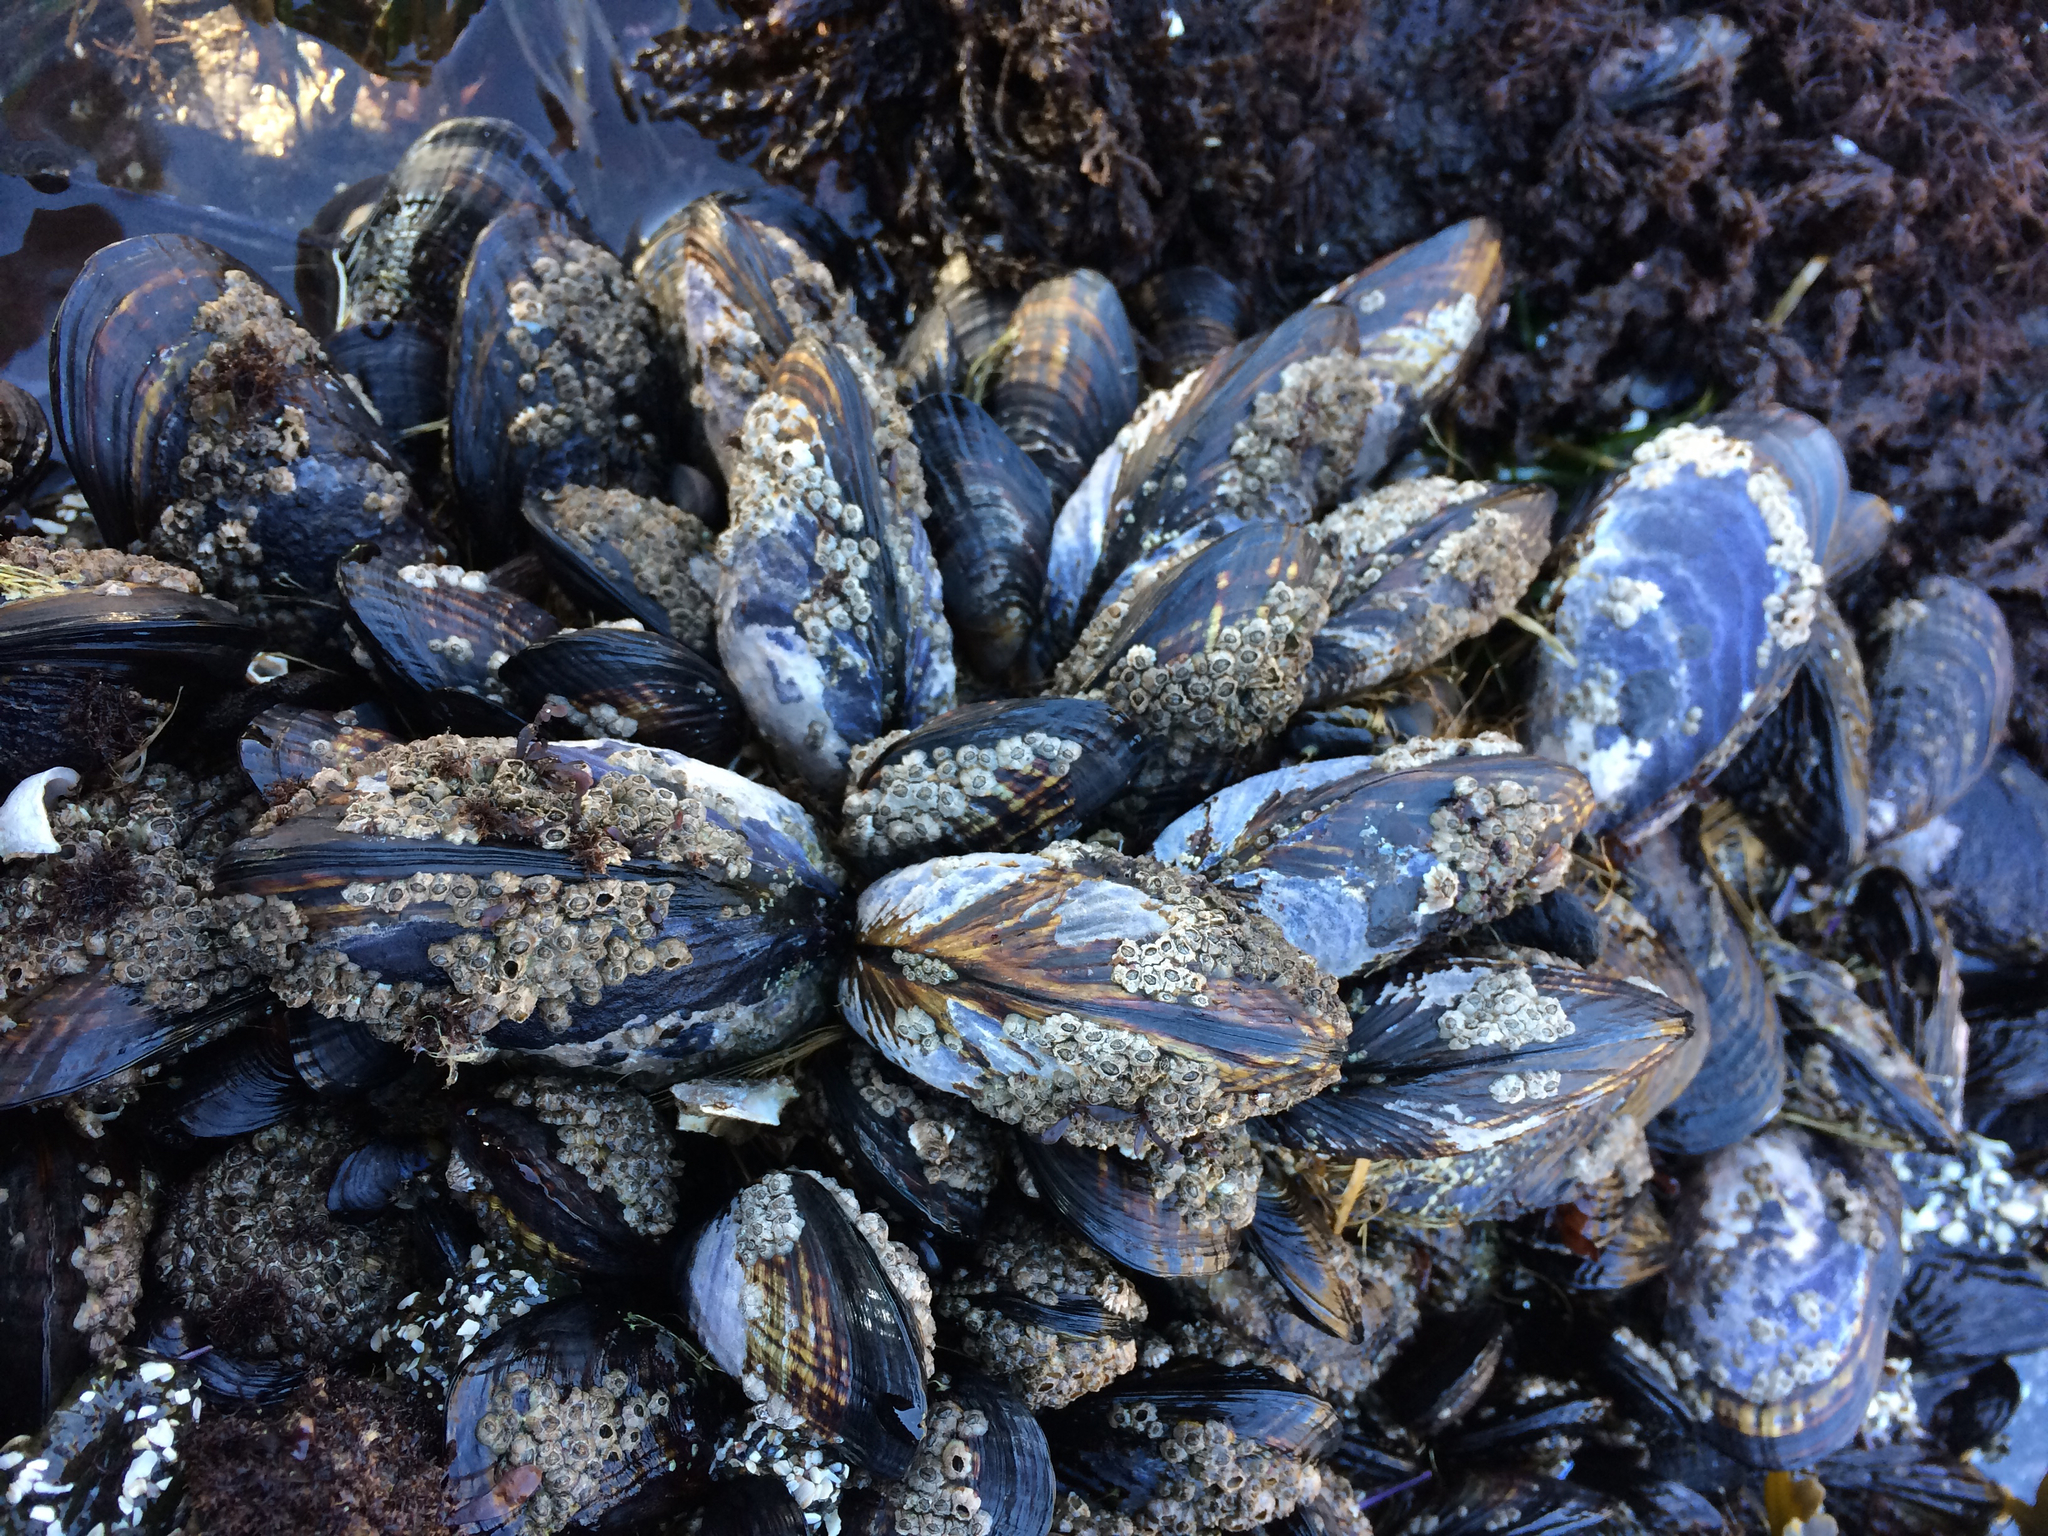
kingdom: Animalia
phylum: Mollusca
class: Bivalvia
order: Mytilida
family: Mytilidae
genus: Mytilus
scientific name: Mytilus californianus
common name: California mussel
